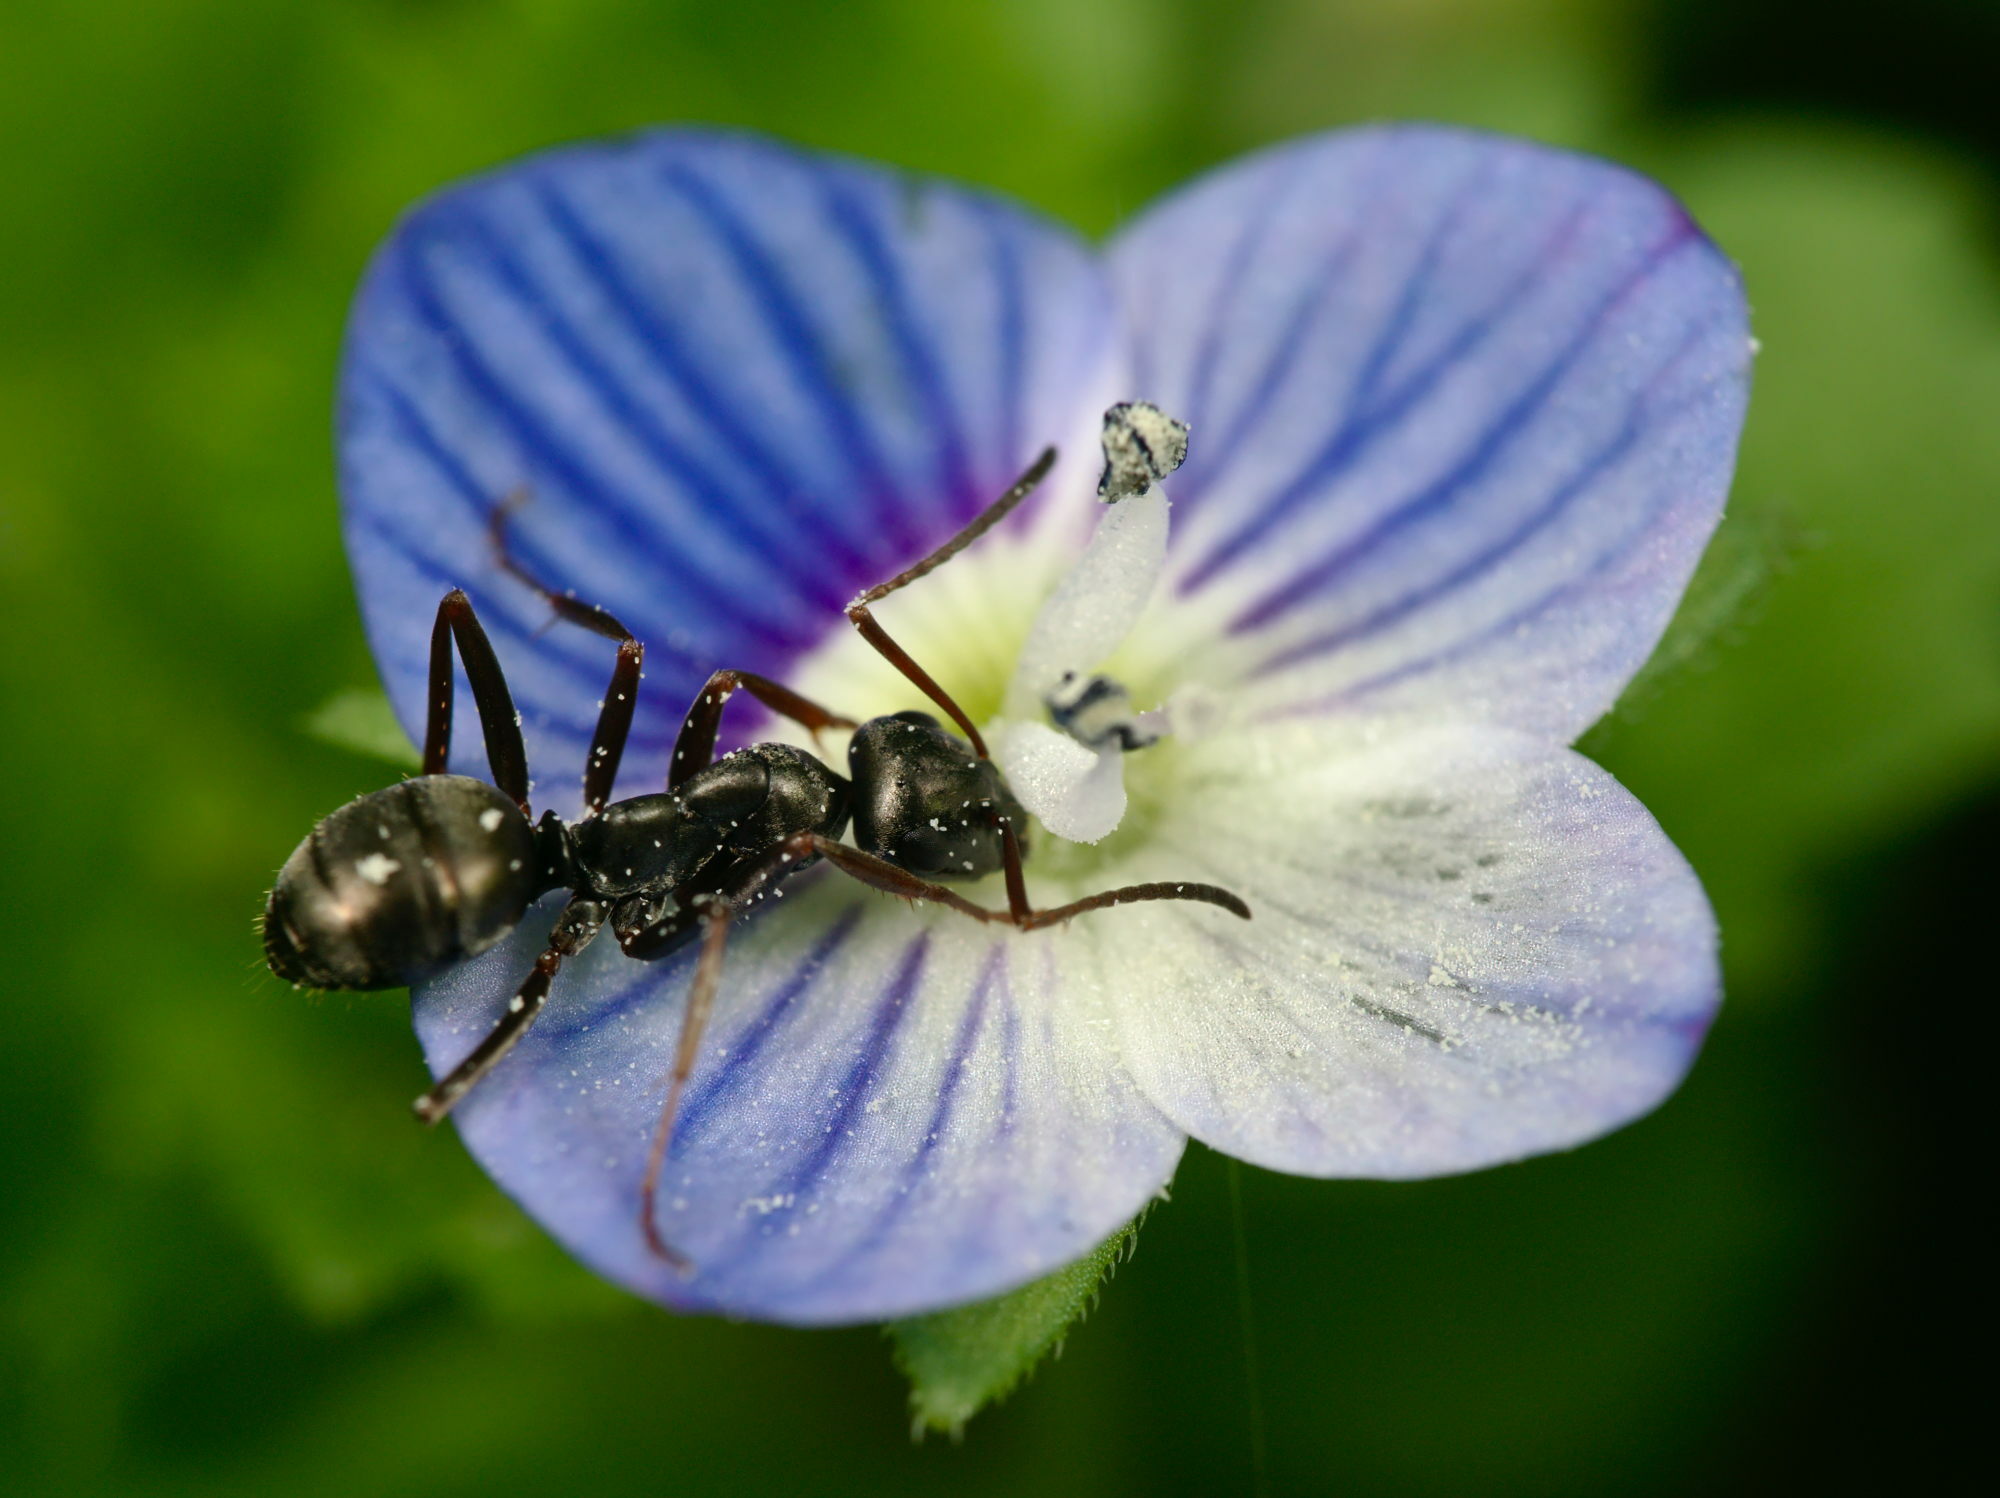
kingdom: Animalia
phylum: Arthropoda
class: Insecta
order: Hymenoptera
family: Formicidae
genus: Formica
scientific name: Formica fusca
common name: Silky ant
